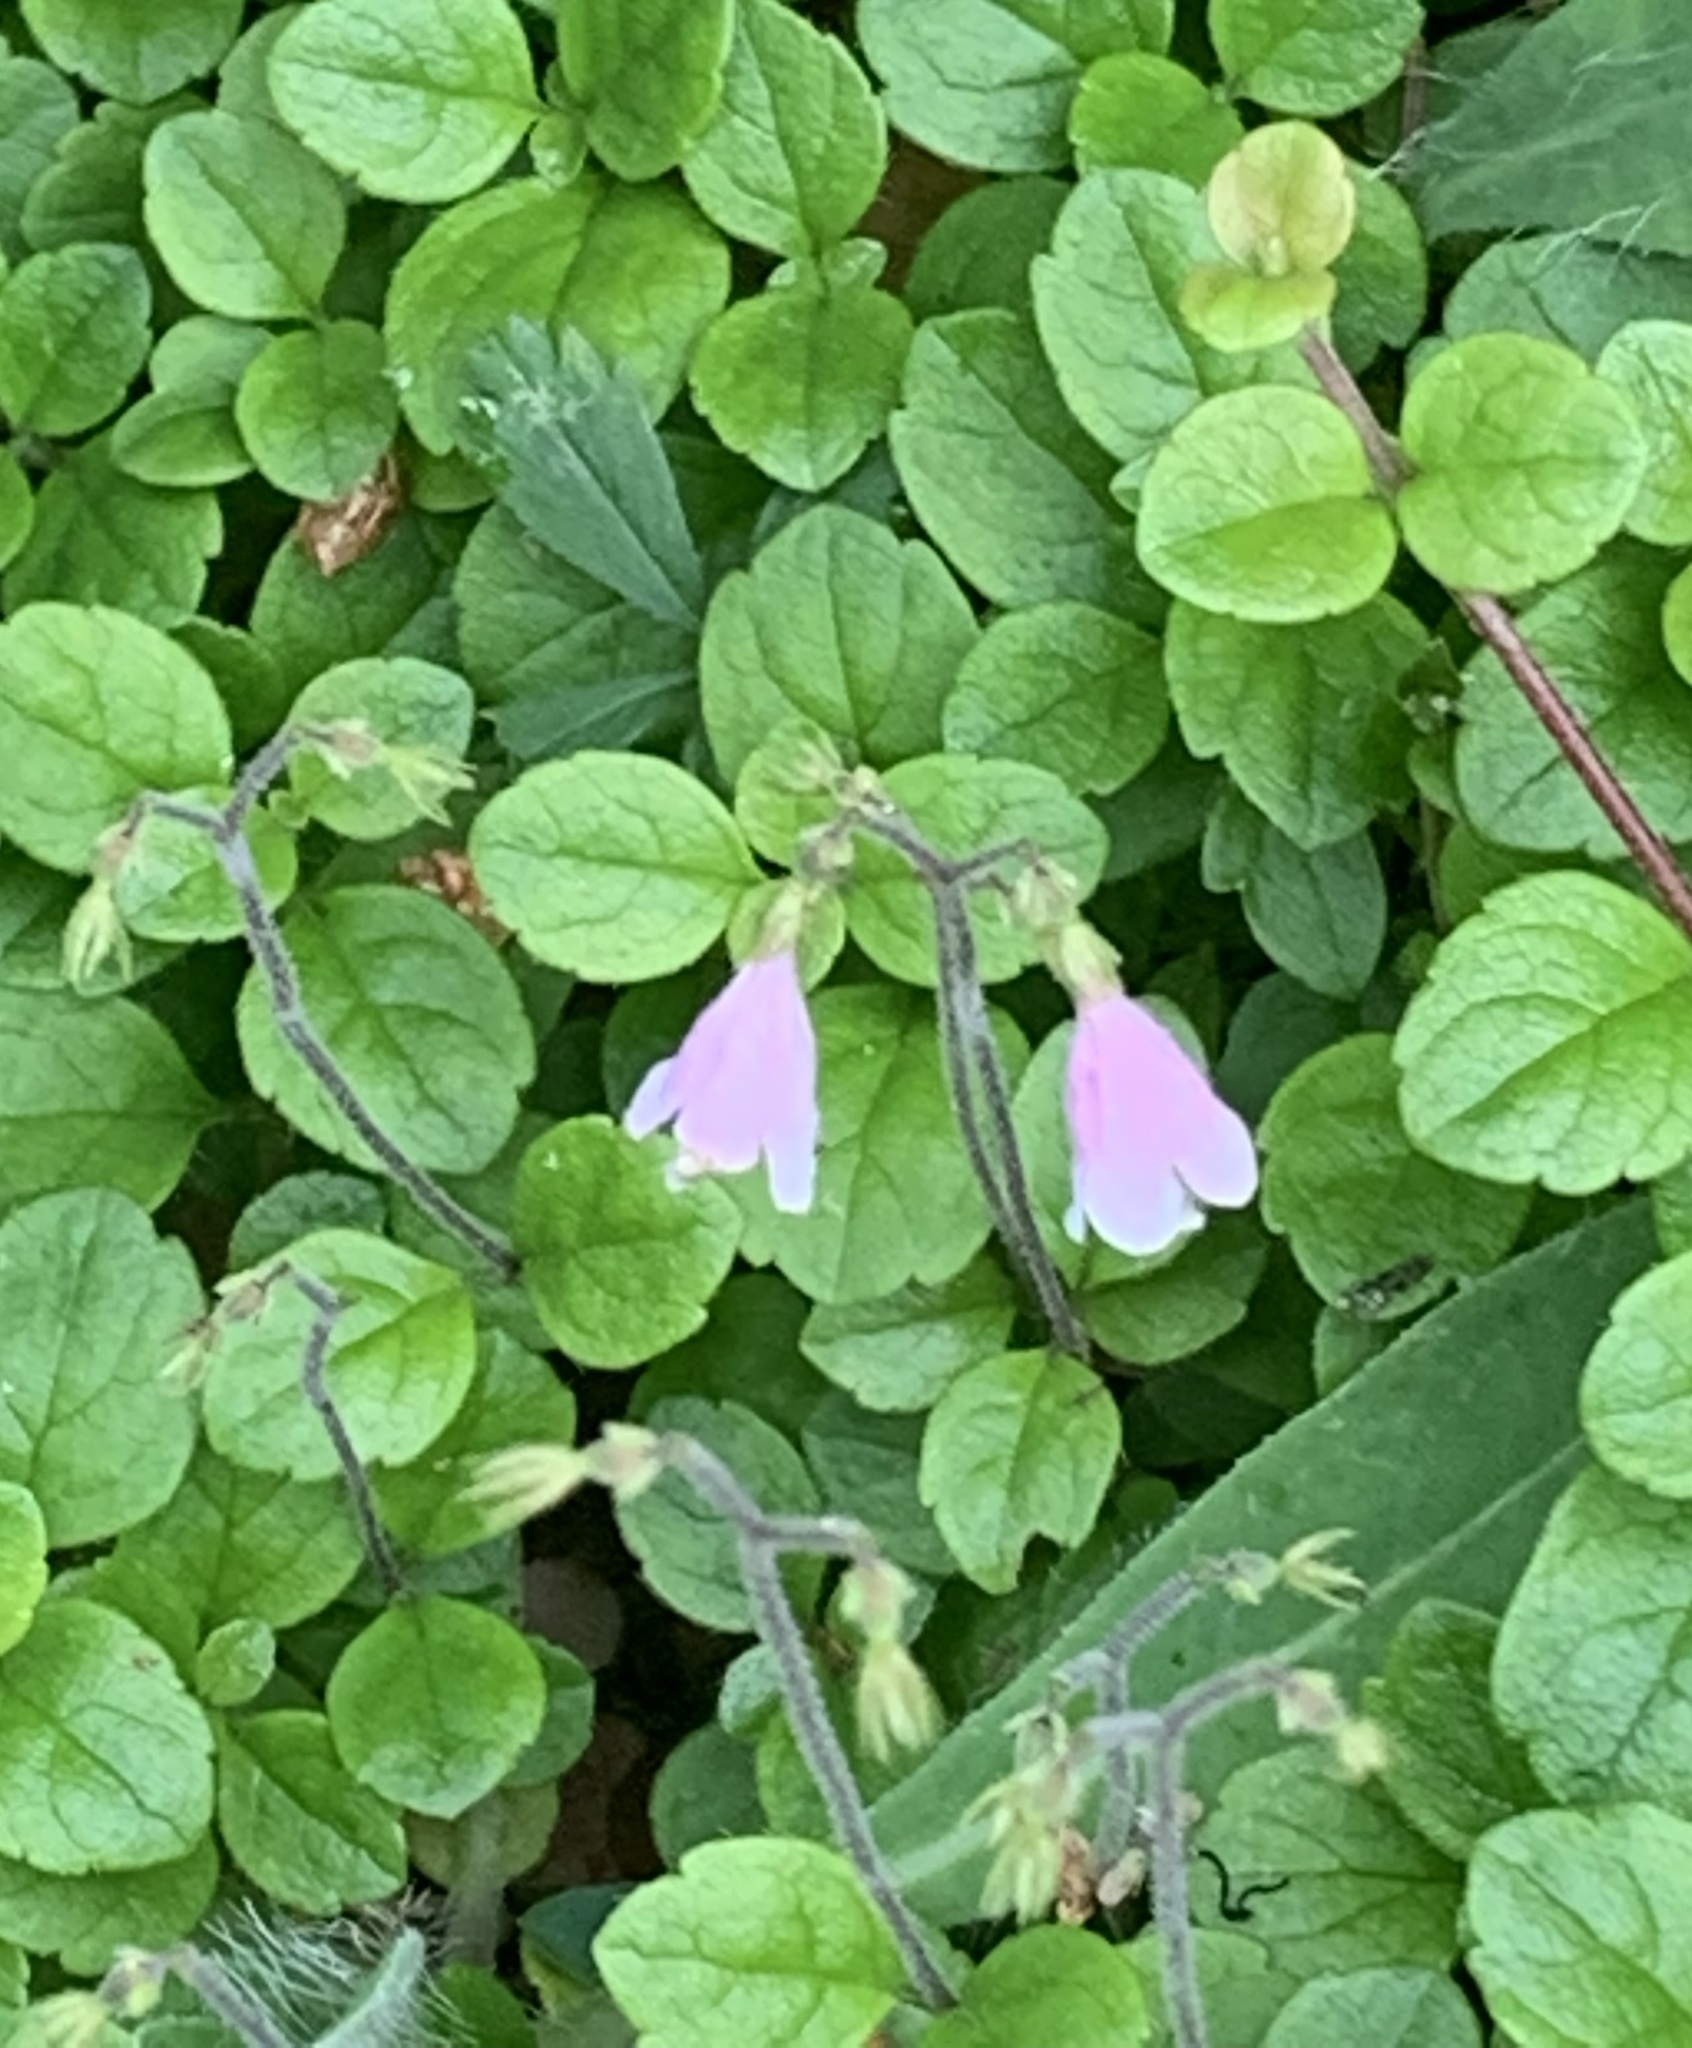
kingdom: Plantae
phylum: Tracheophyta
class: Magnoliopsida
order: Dipsacales
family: Caprifoliaceae
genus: Linnaea
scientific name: Linnaea borealis
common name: Twinflower
